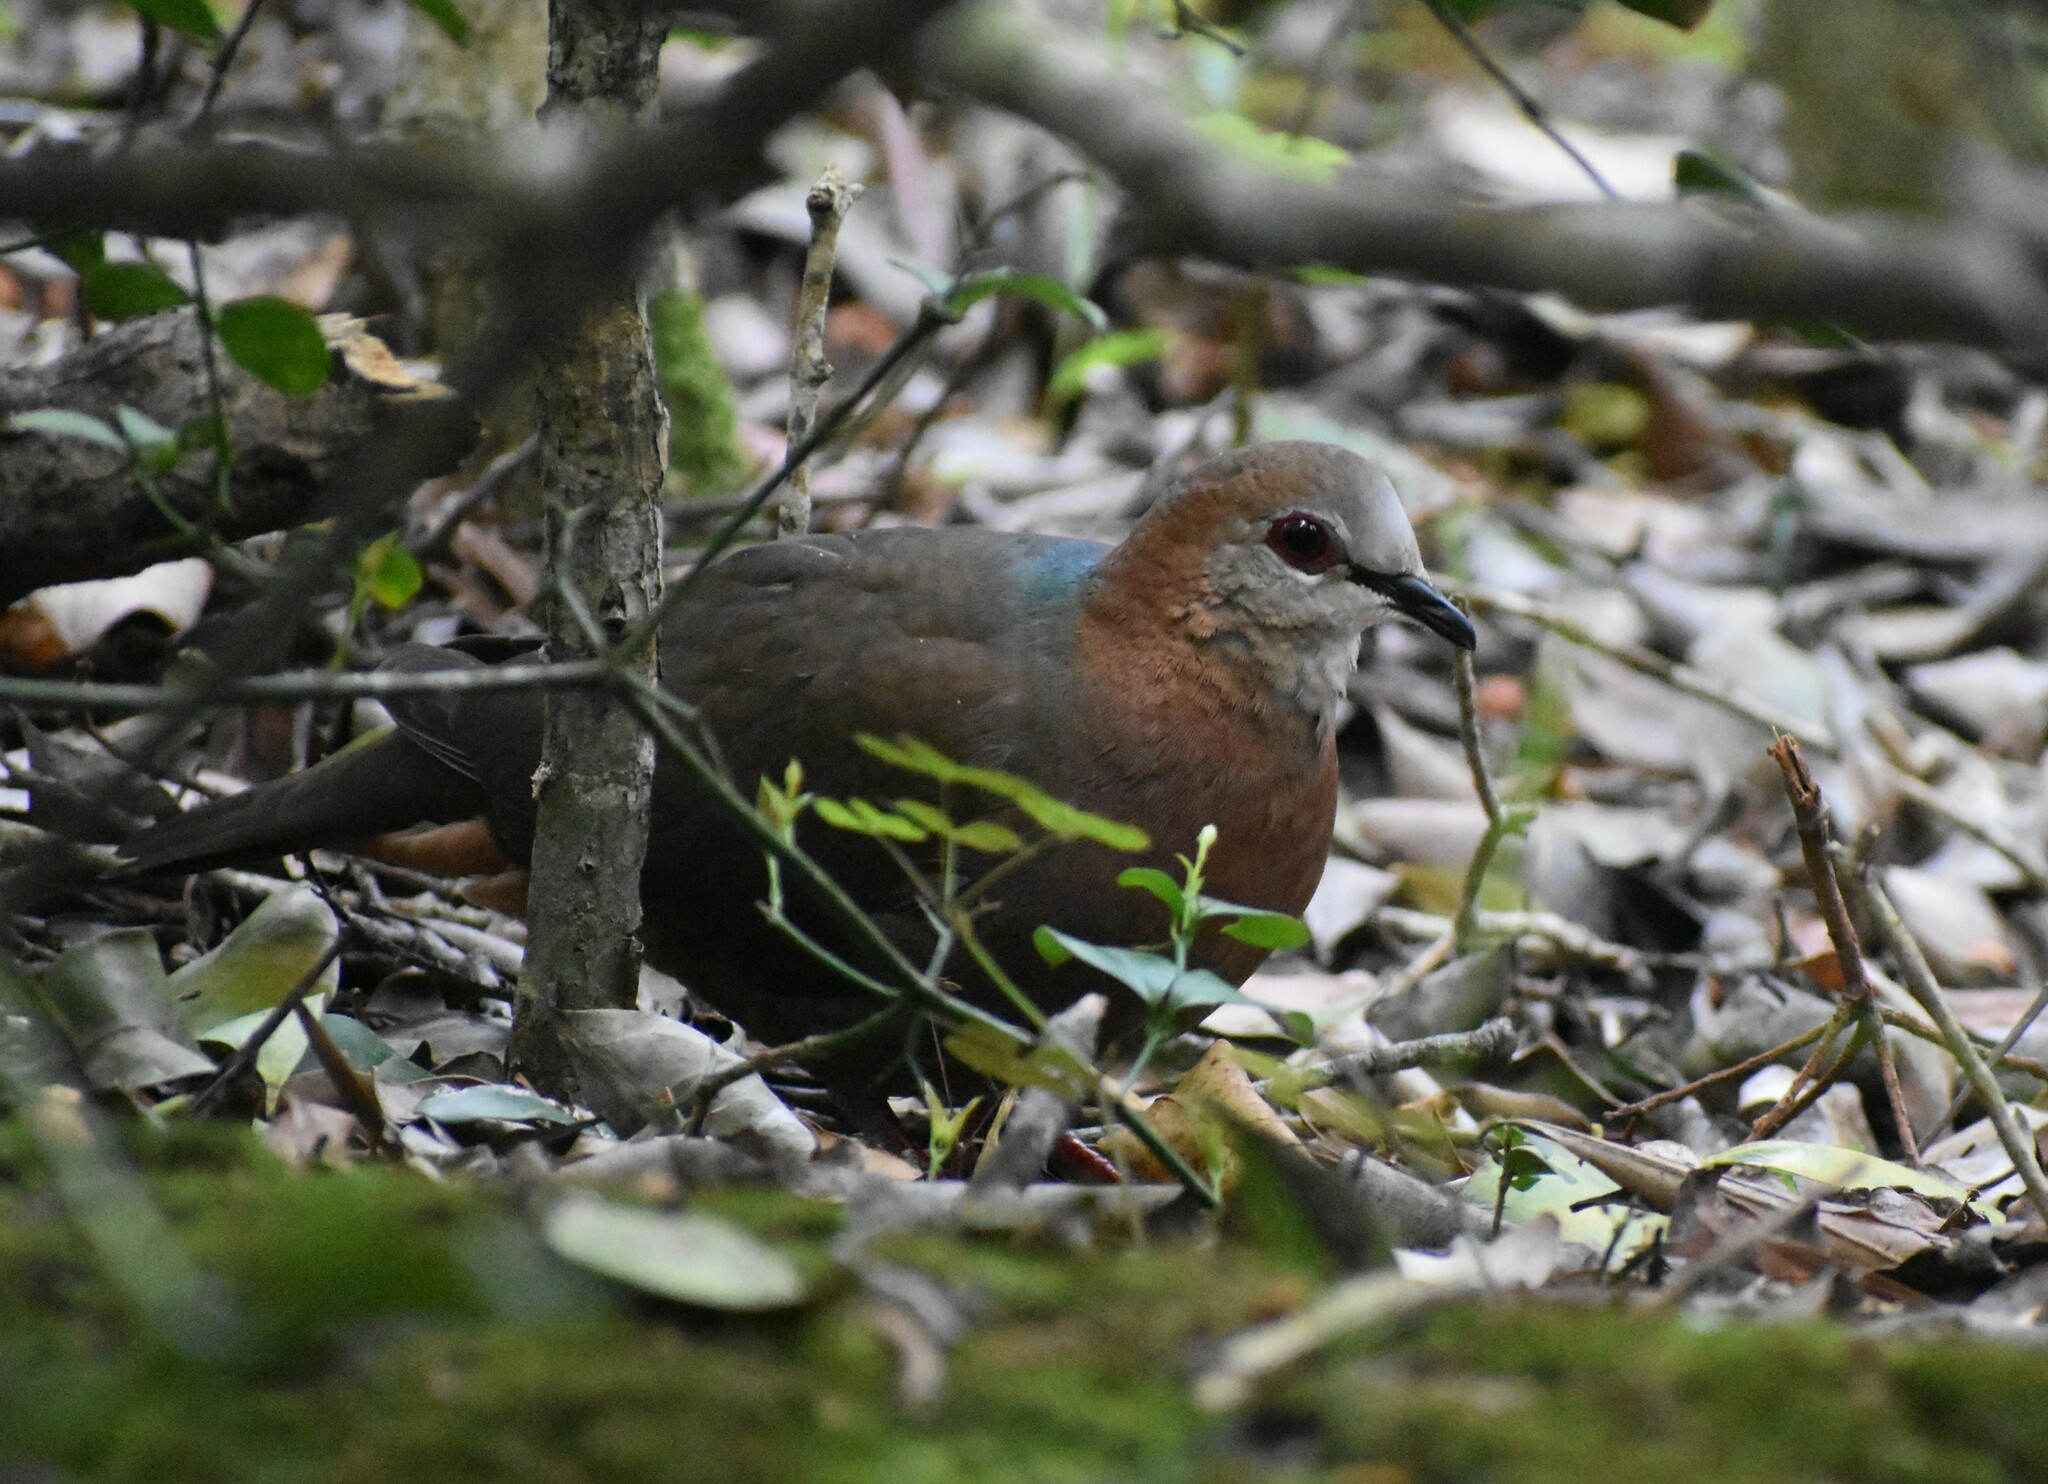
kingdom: Animalia
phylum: Chordata
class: Aves
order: Columbiformes
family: Columbidae
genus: Columba
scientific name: Columba larvata
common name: Lemon dove
